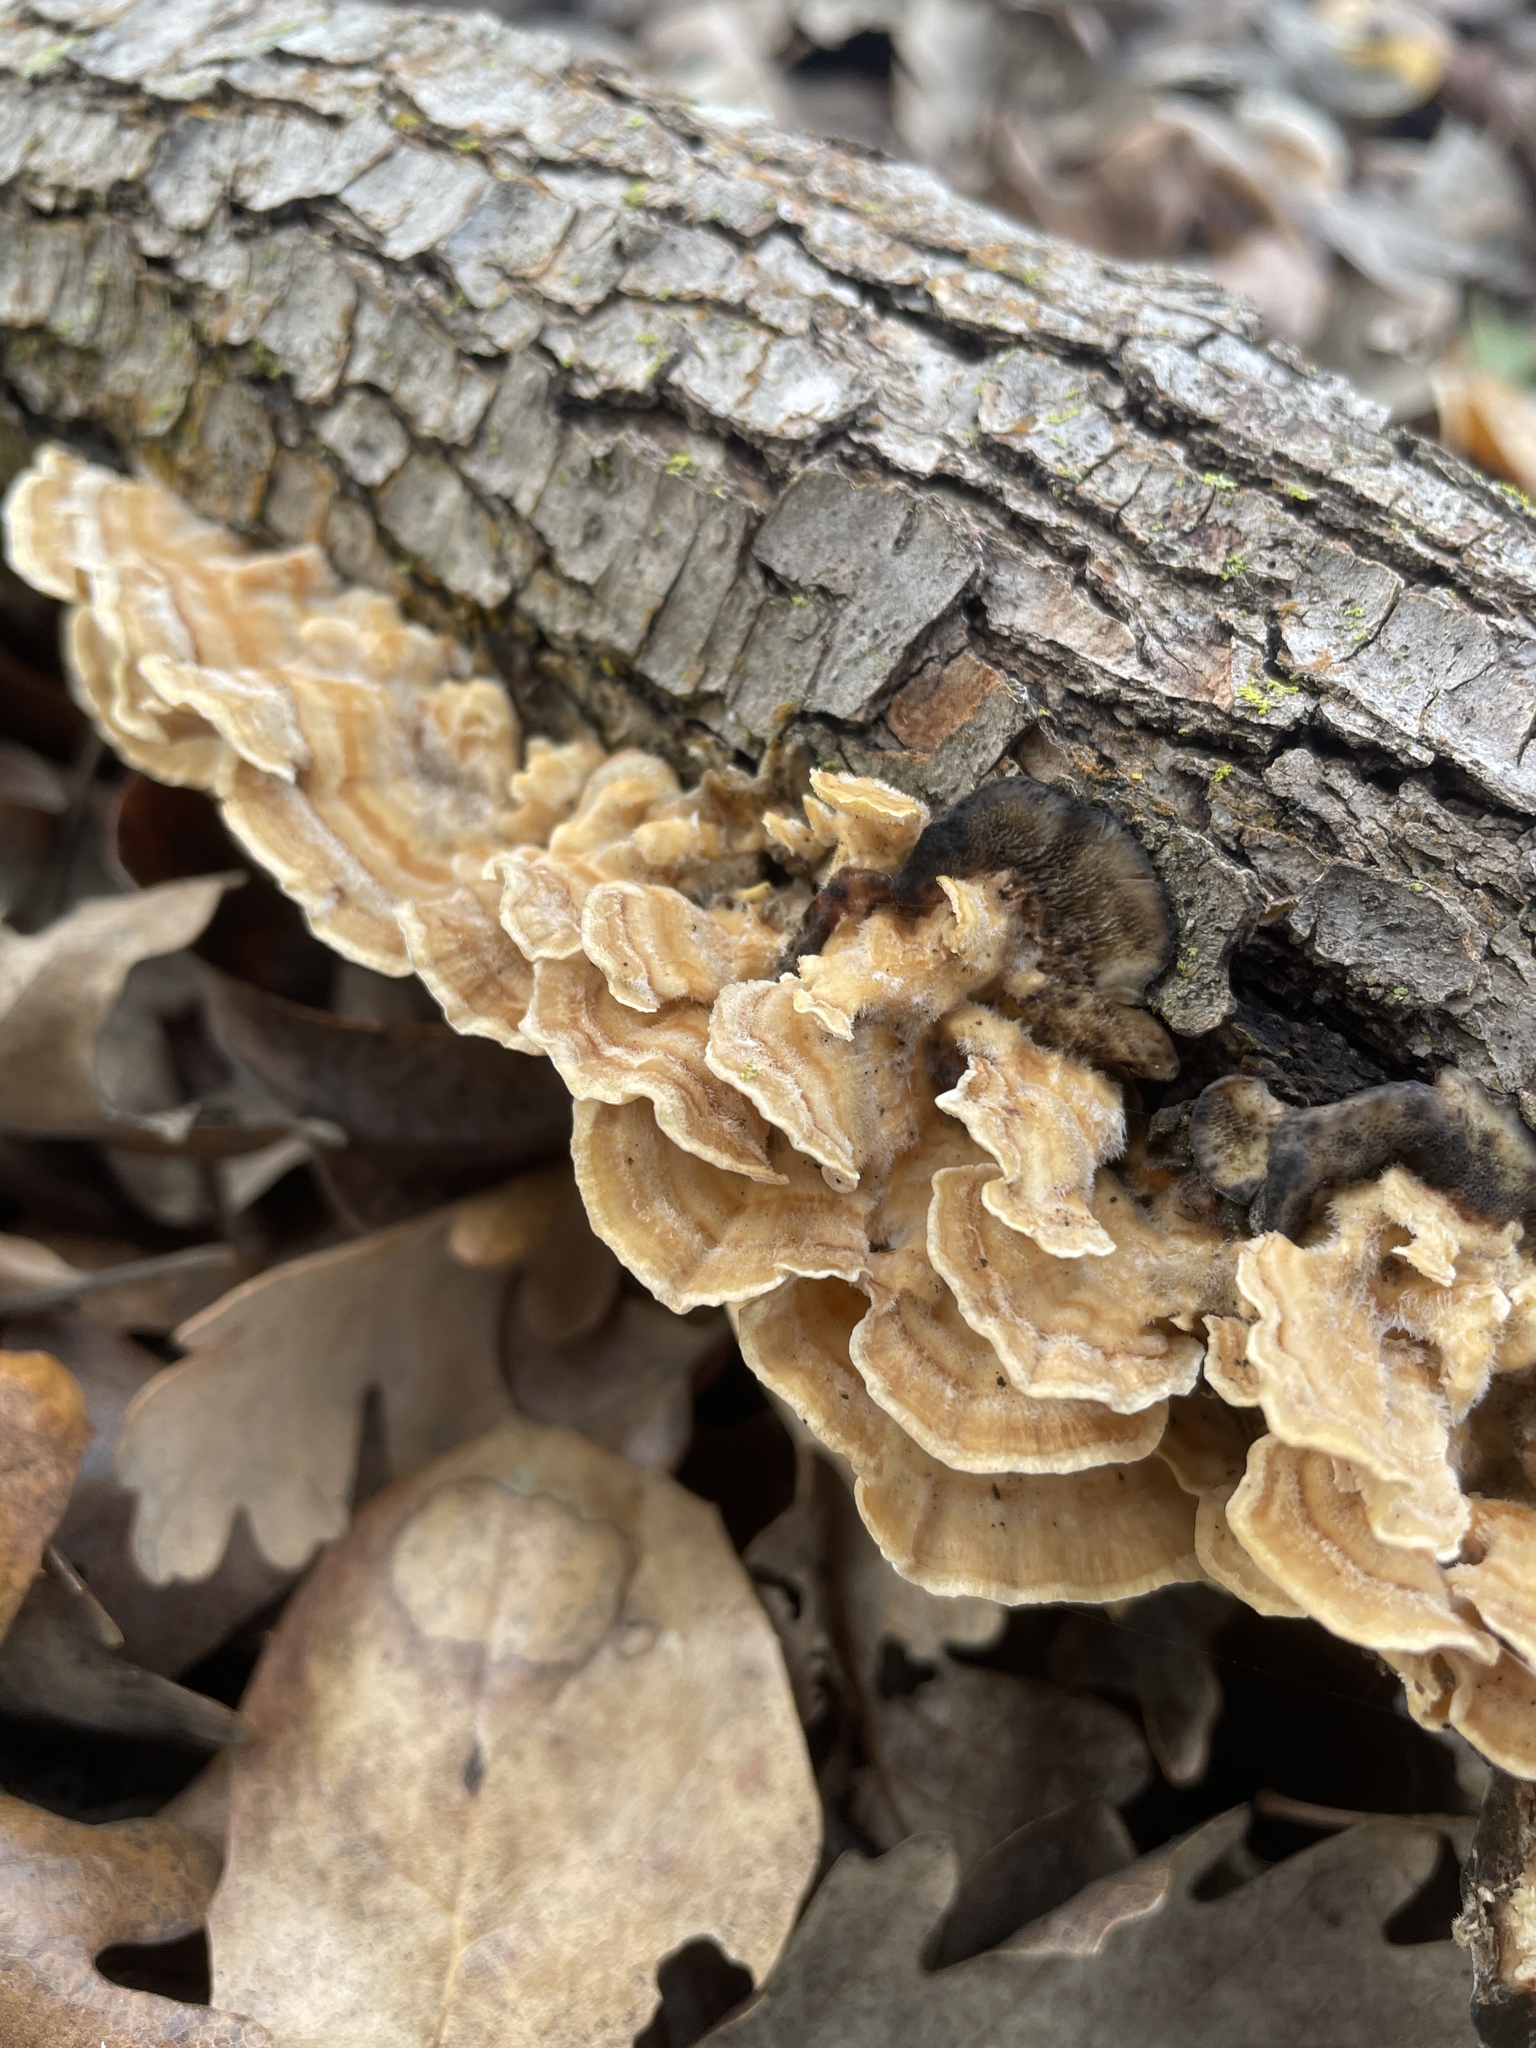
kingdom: Fungi
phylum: Basidiomycota
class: Agaricomycetes
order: Polyporales
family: Polyporaceae
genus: Trametes
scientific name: Trametes versicolor
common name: Turkeytail
